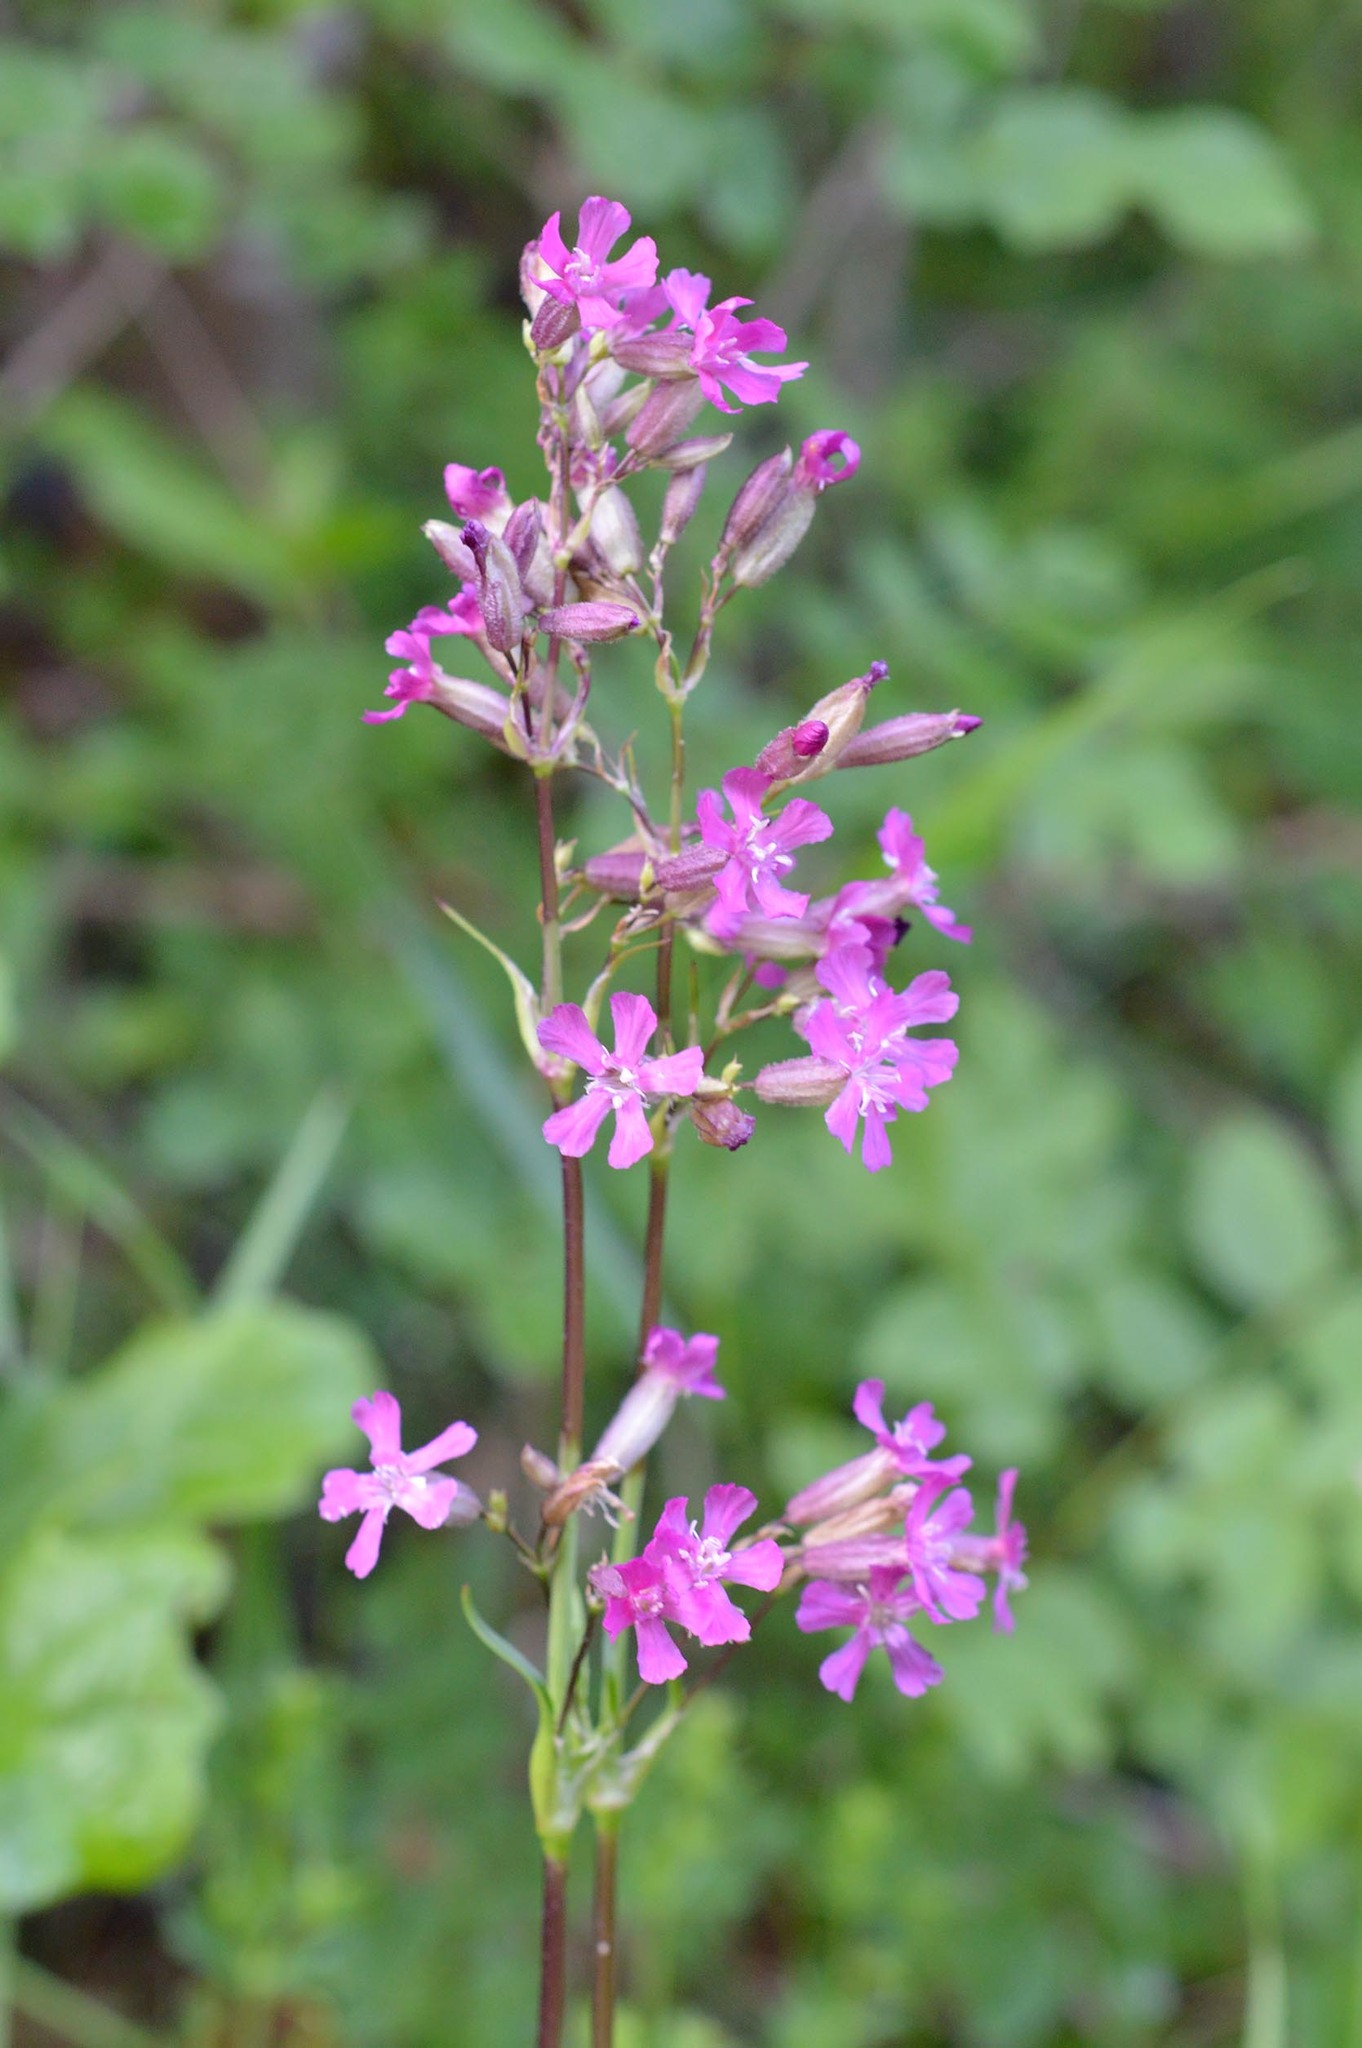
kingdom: Plantae
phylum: Tracheophyta
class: Magnoliopsida
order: Caryophyllales
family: Caryophyllaceae
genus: Viscaria
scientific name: Viscaria vulgaris
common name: Clammy campion
